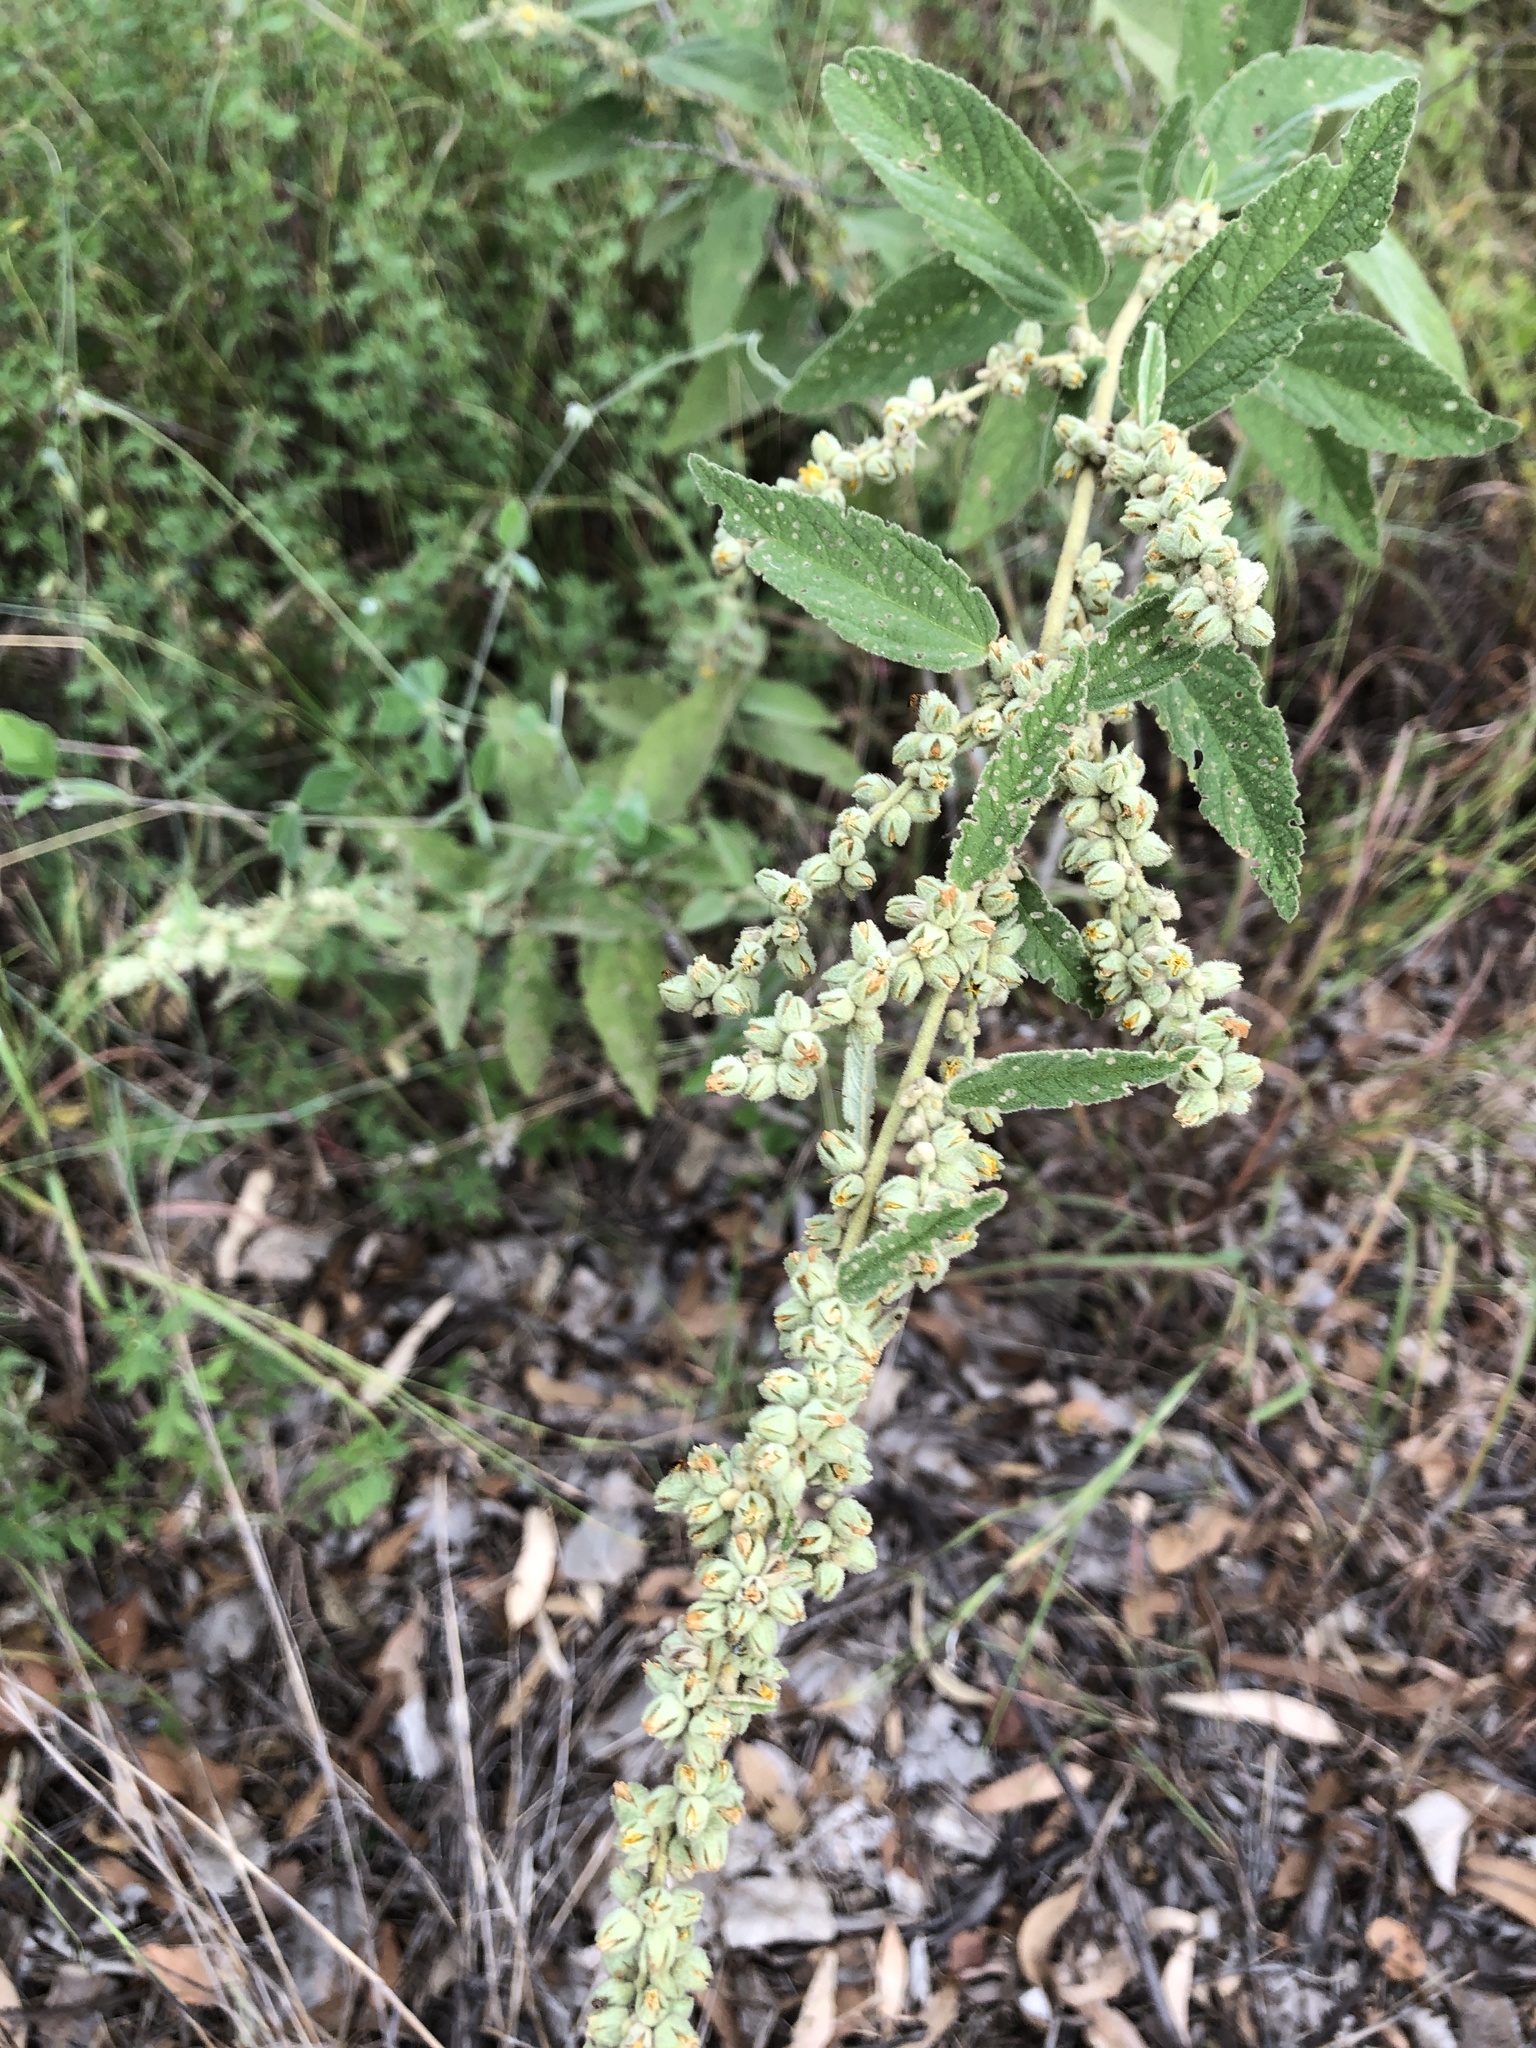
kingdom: Plantae
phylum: Tracheophyta
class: Magnoliopsida
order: Malvales
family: Malvaceae
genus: Sida
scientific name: Sida hackettiana
